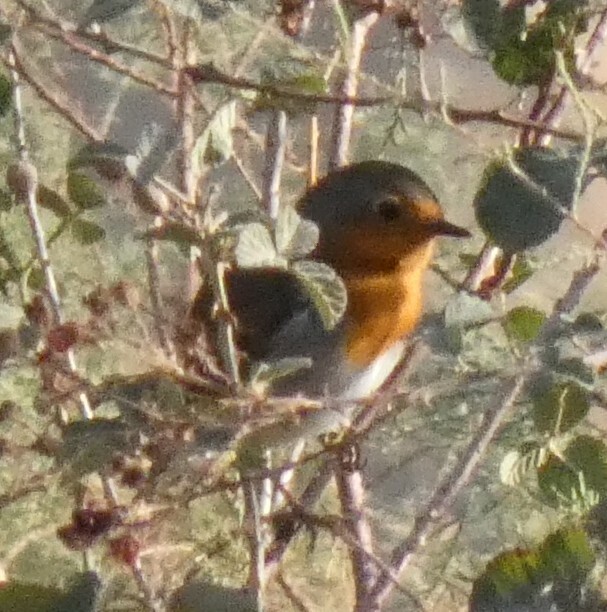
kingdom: Animalia
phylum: Chordata
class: Aves
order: Passeriformes
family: Muscicapidae
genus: Erithacus
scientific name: Erithacus rubecula
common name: European robin
